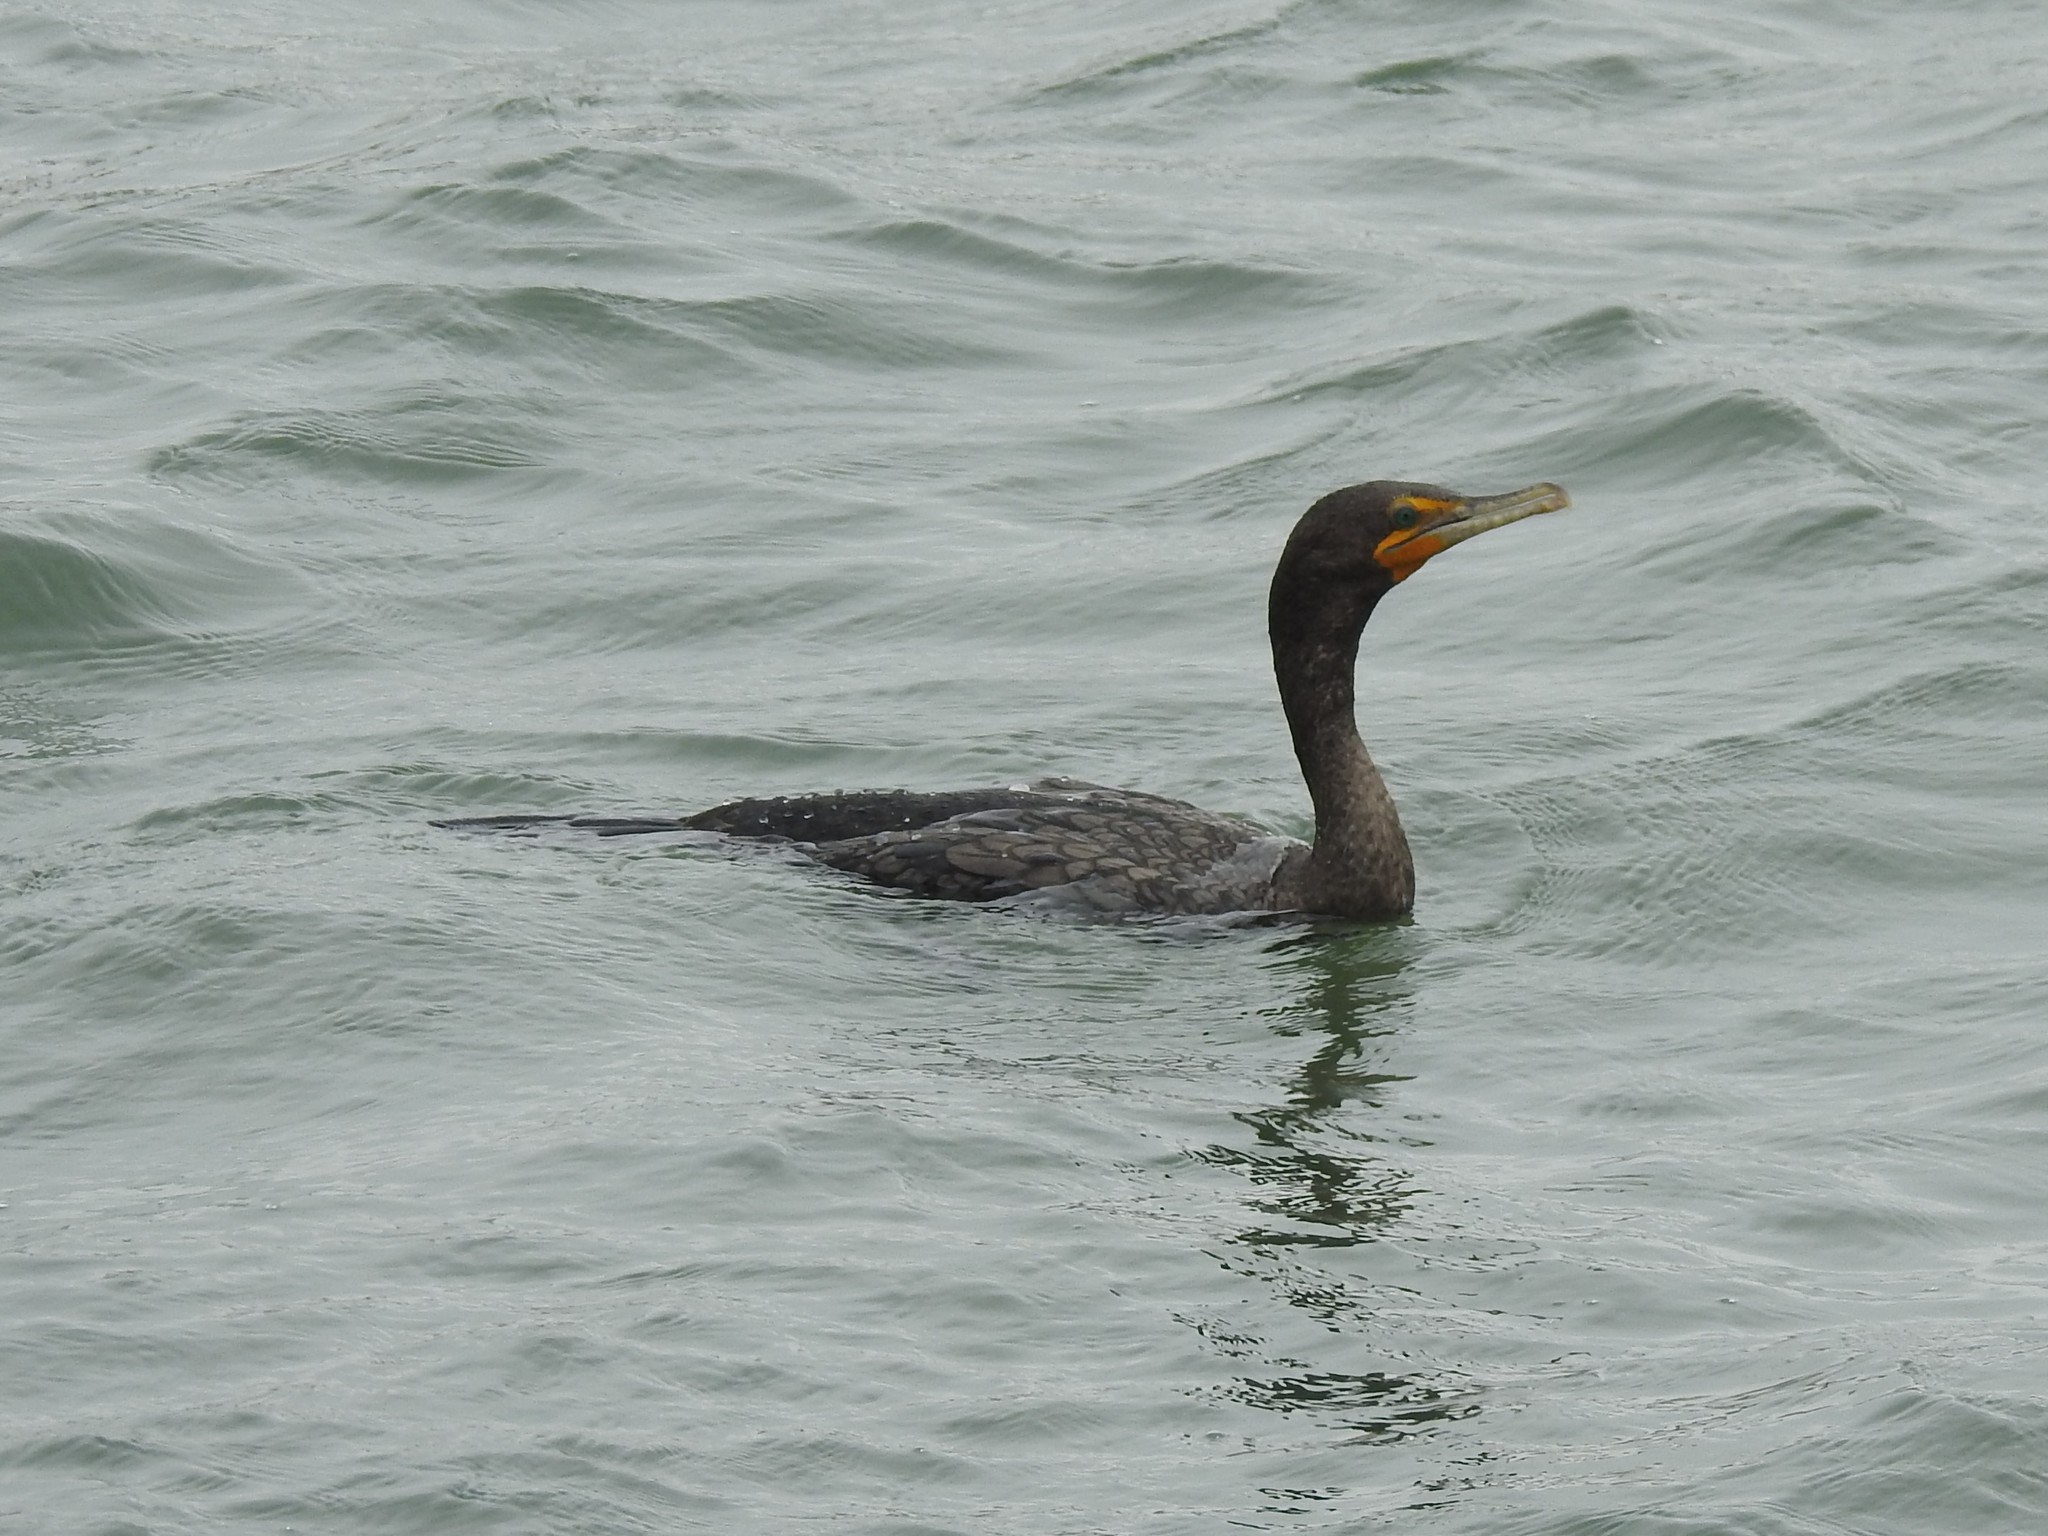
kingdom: Animalia
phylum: Chordata
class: Aves
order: Suliformes
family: Phalacrocoracidae
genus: Phalacrocorax
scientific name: Phalacrocorax auritus
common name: Double-crested cormorant
